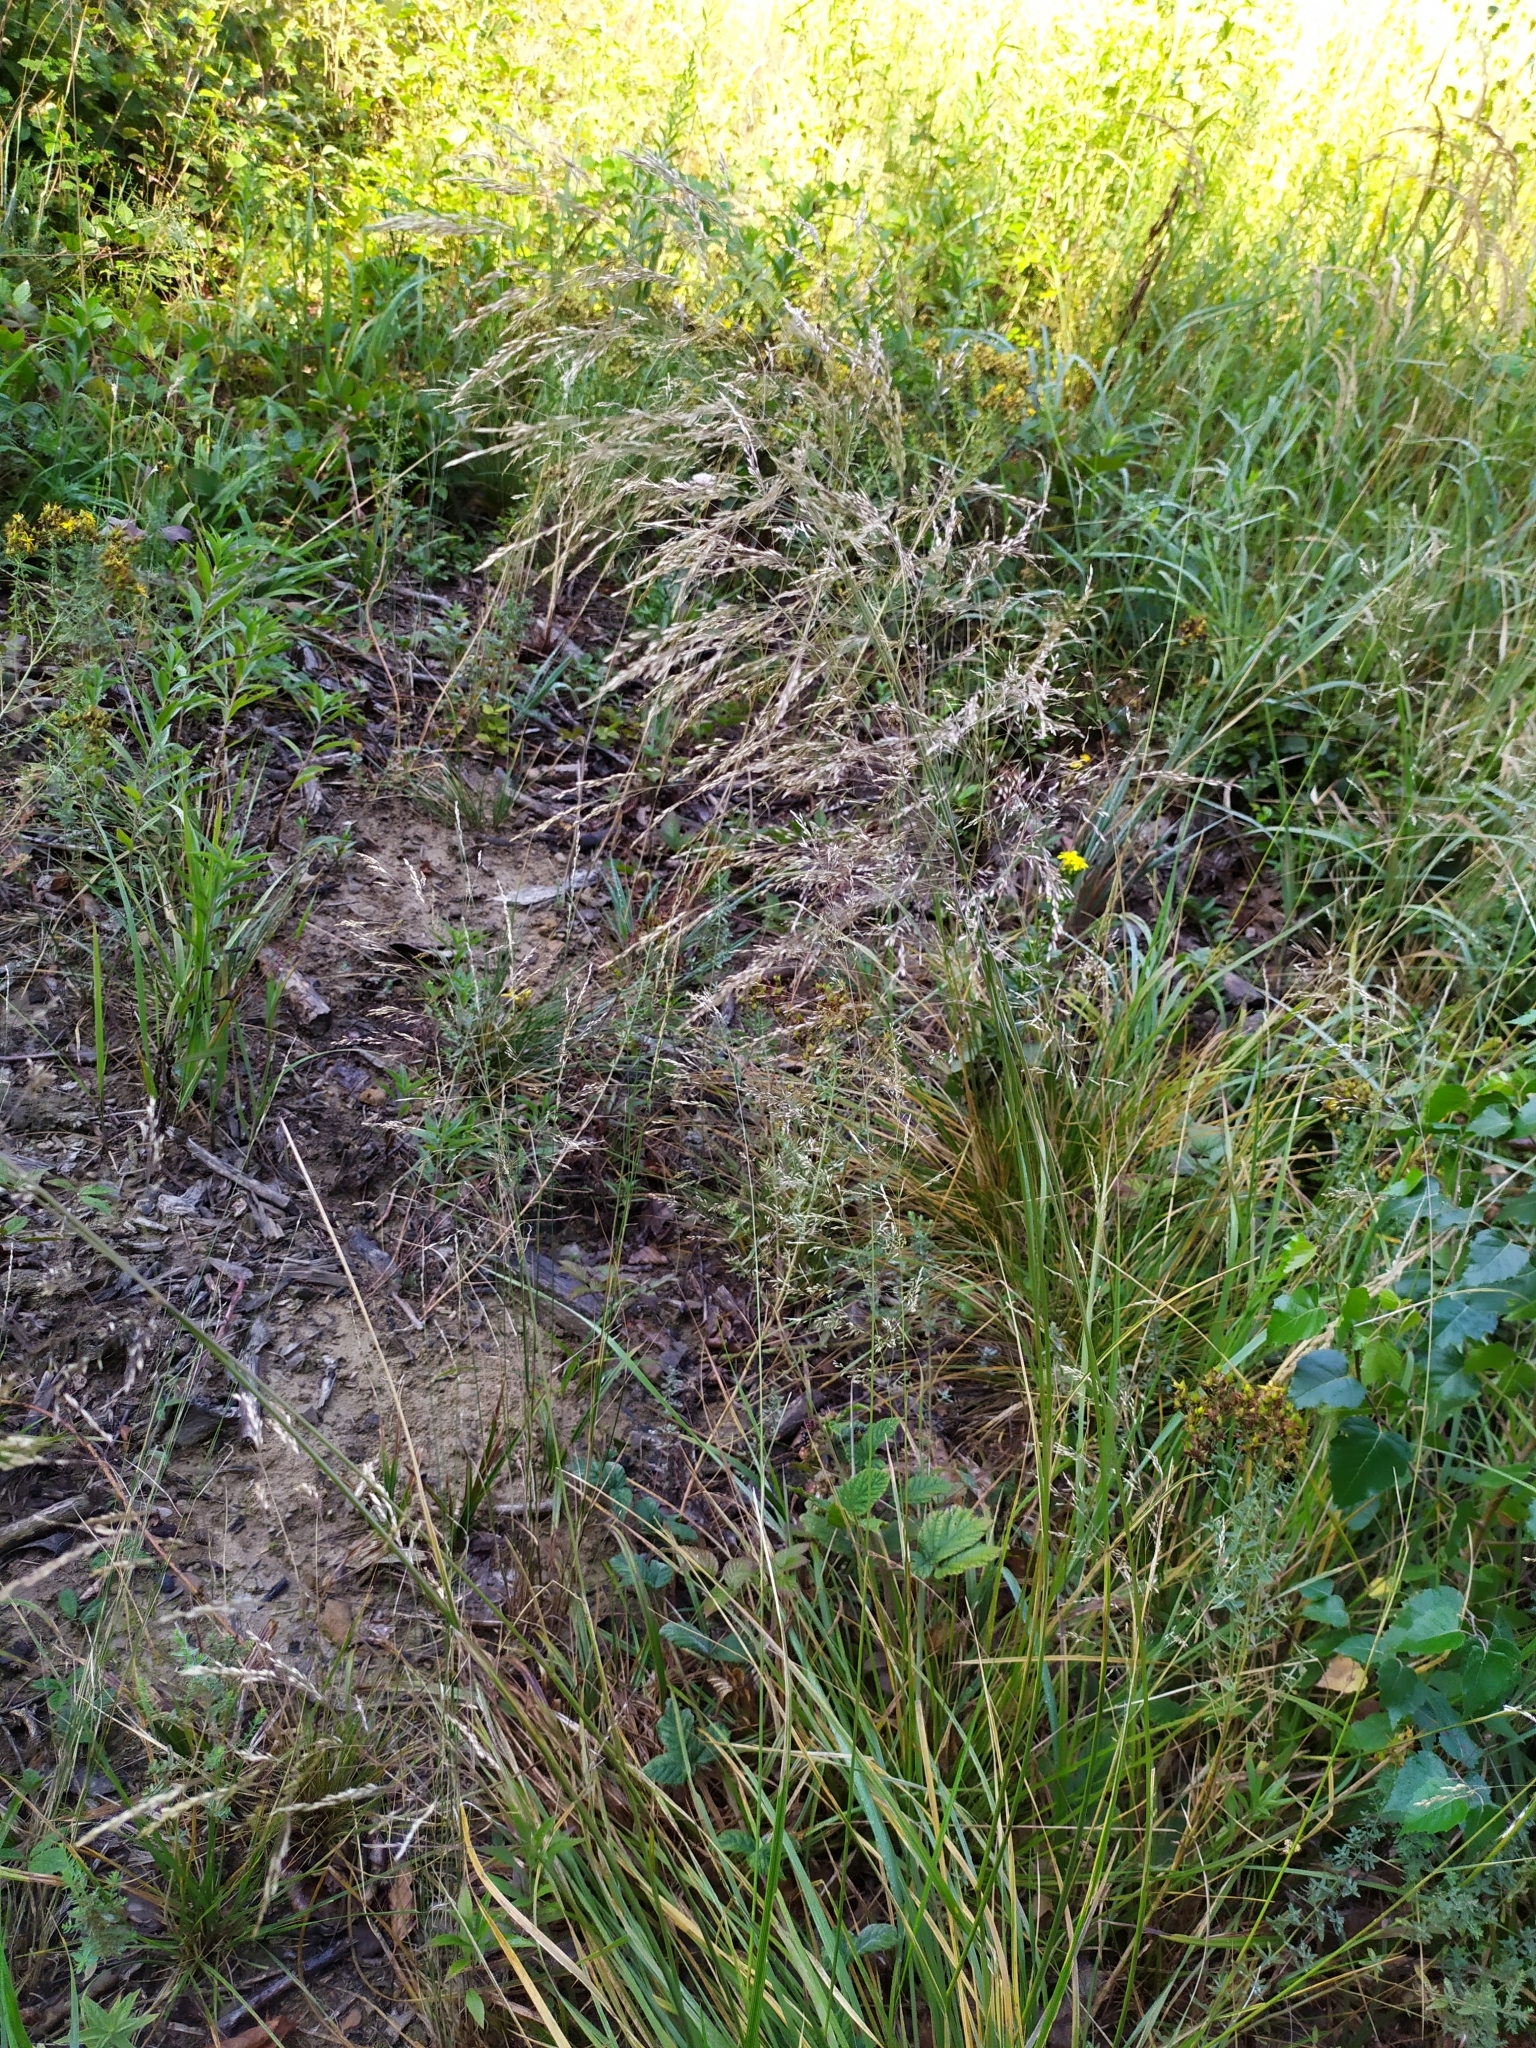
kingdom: Plantae
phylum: Tracheophyta
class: Liliopsida
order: Poales
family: Poaceae
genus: Deschampsia
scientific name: Deschampsia cespitosa
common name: Tufted hair-grass
